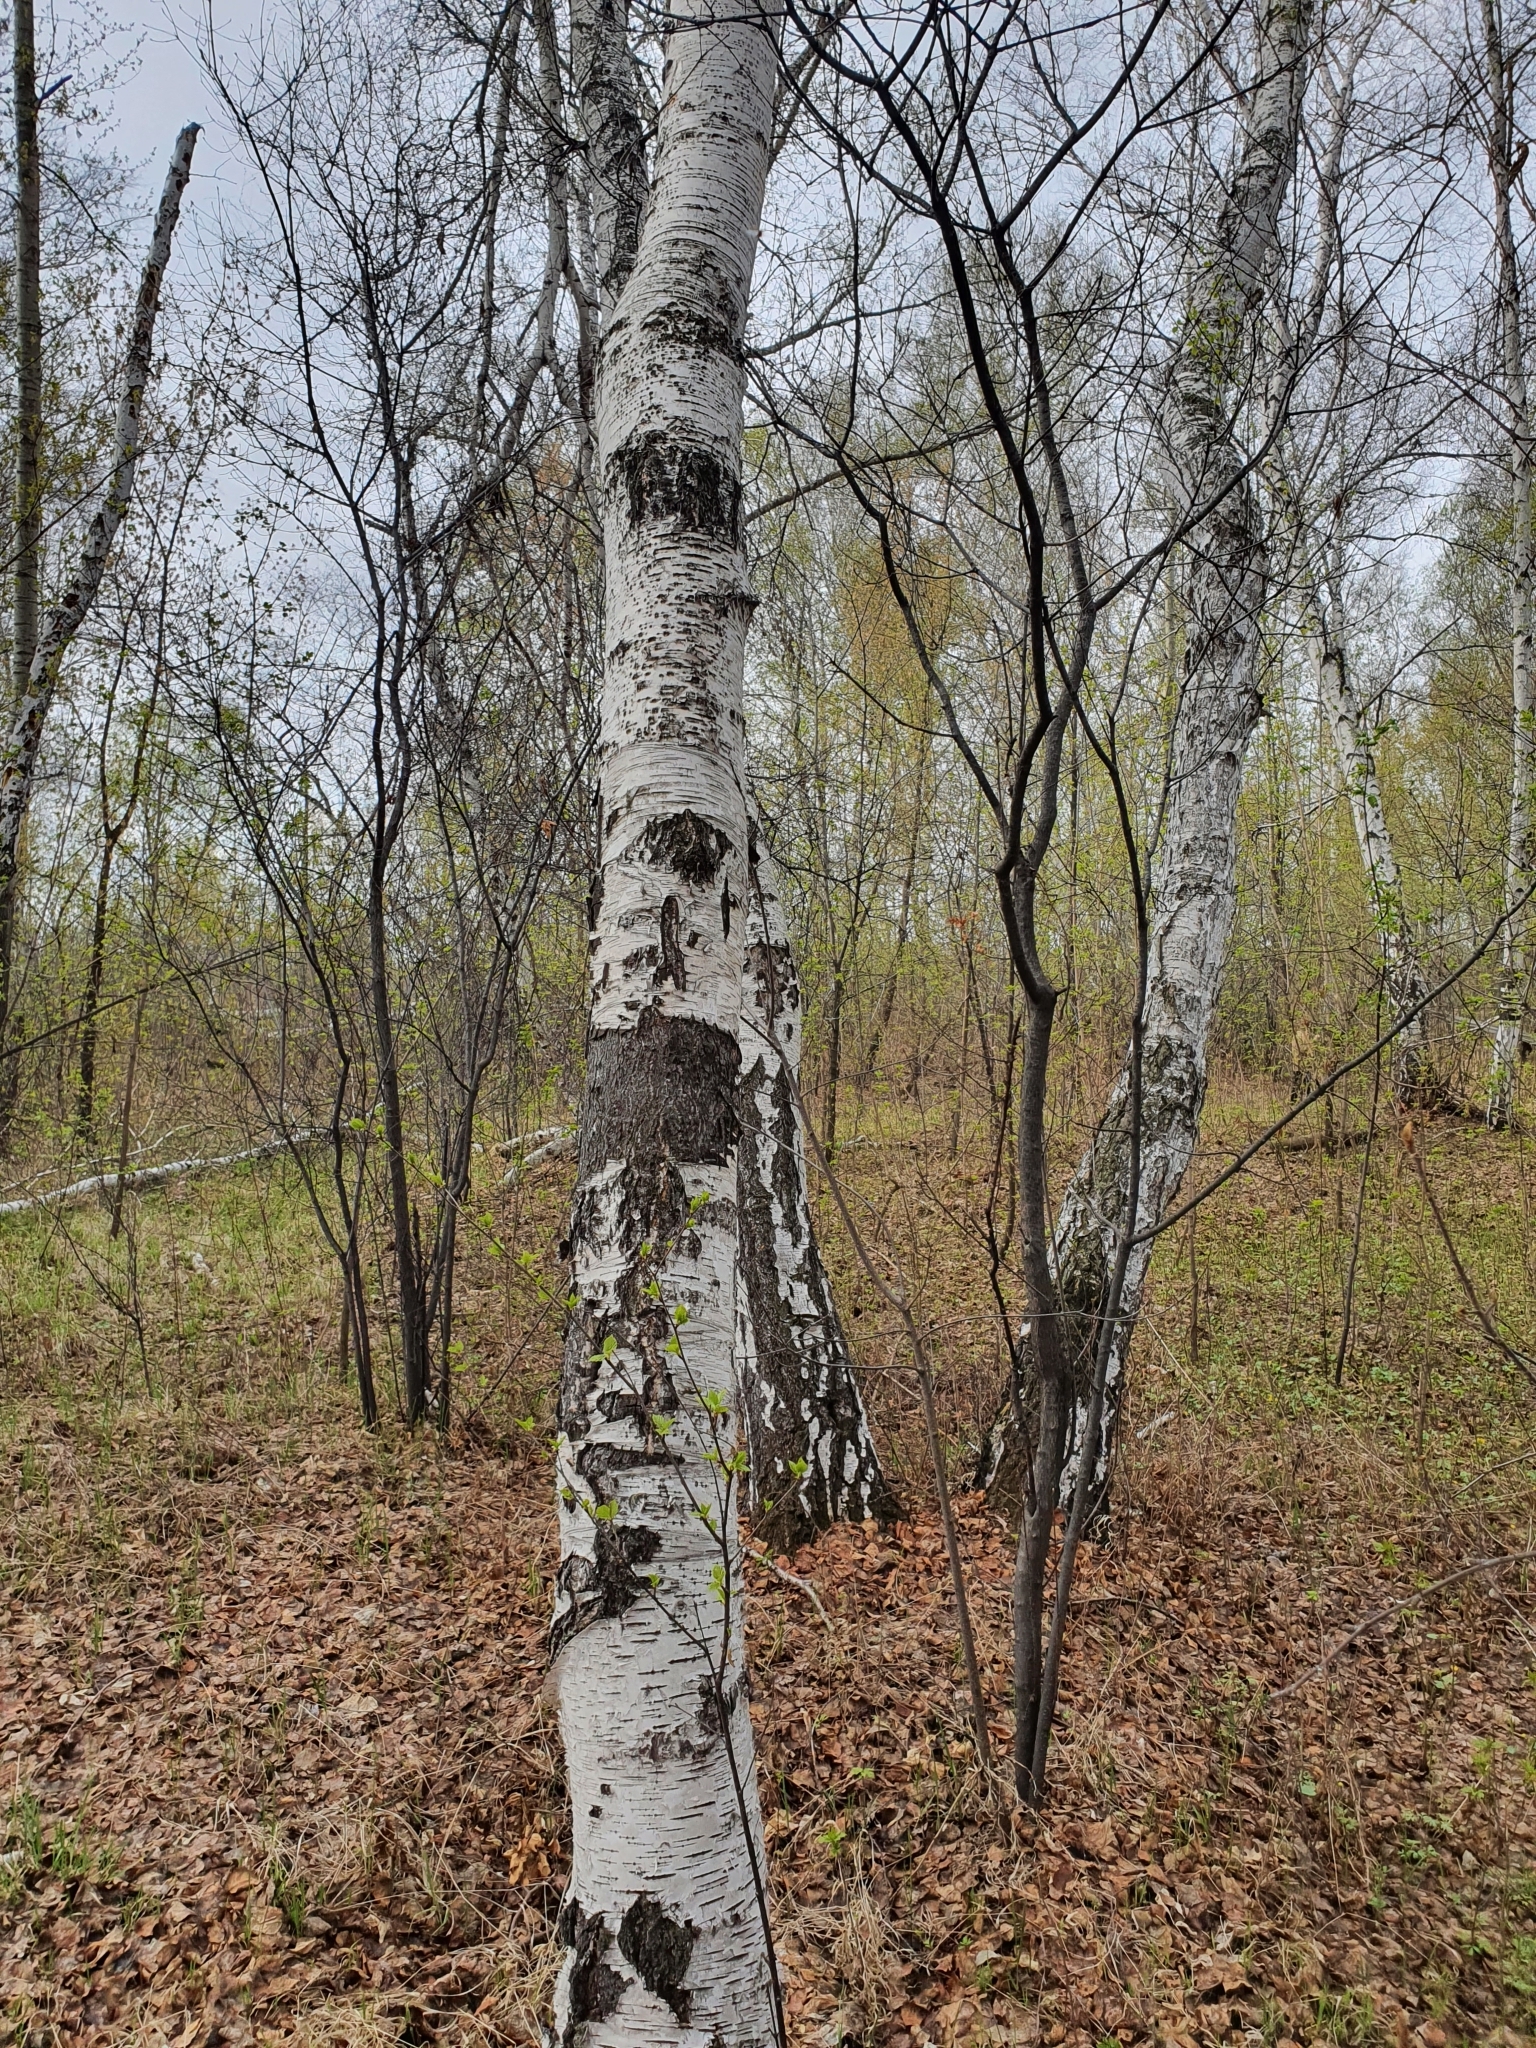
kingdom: Plantae
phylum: Tracheophyta
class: Magnoliopsida
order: Fagales
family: Betulaceae
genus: Betula
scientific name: Betula pendula
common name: Silver birch
